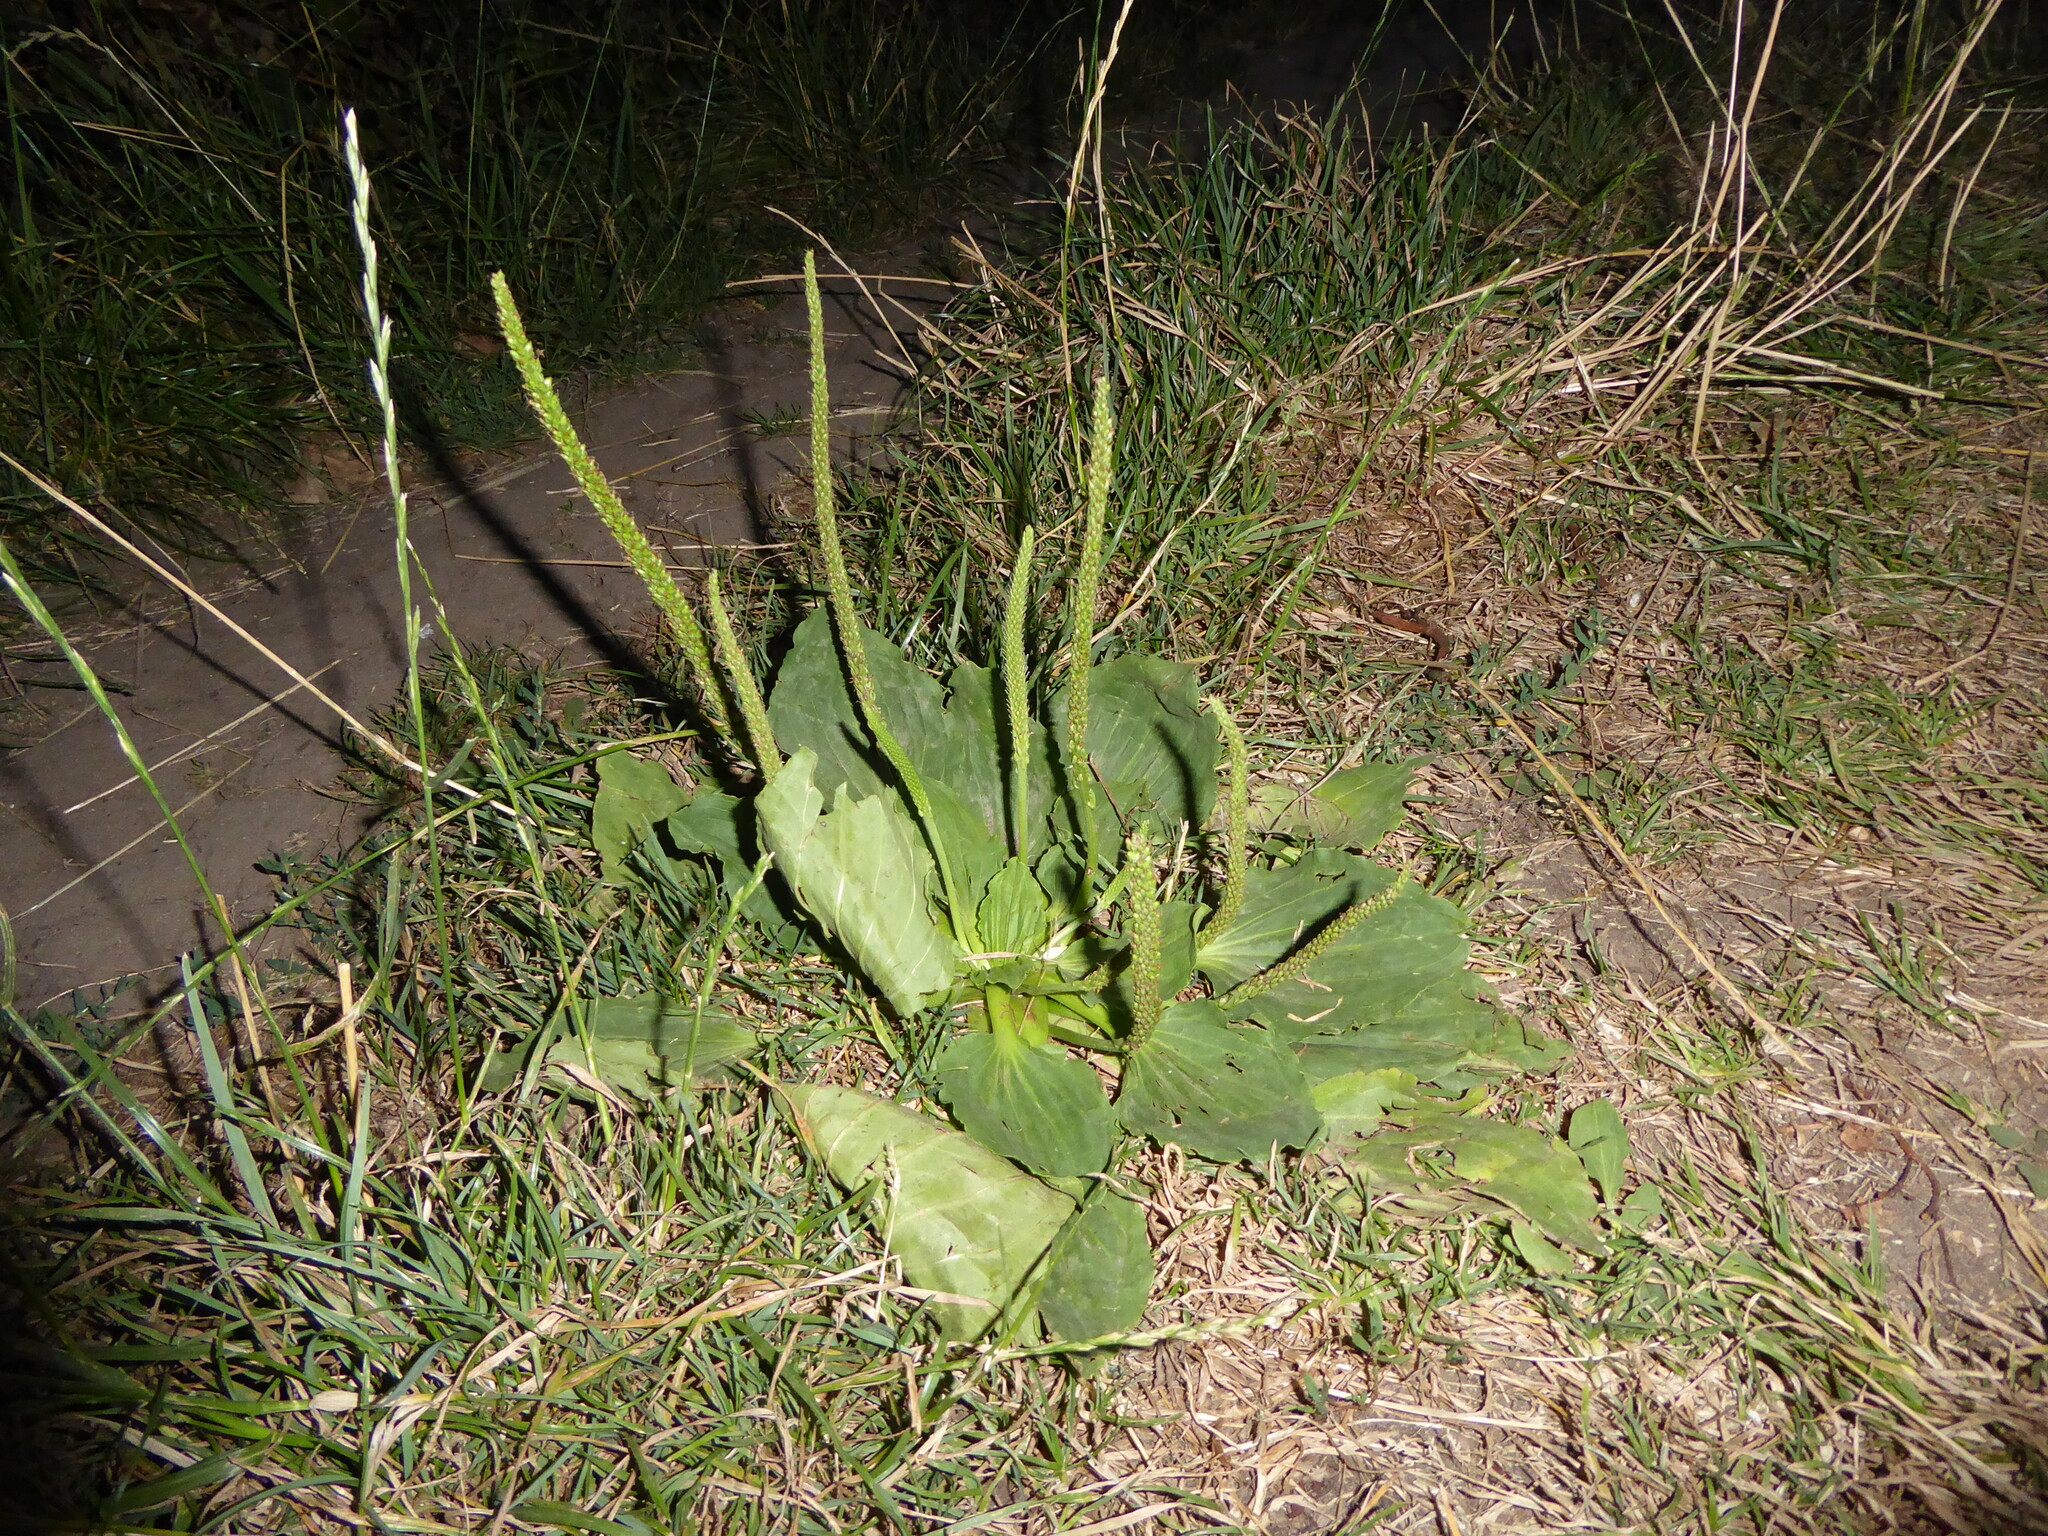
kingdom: Plantae
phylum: Tracheophyta
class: Magnoliopsida
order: Lamiales
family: Plantaginaceae
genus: Plantago
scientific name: Plantago major
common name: Common plantain
